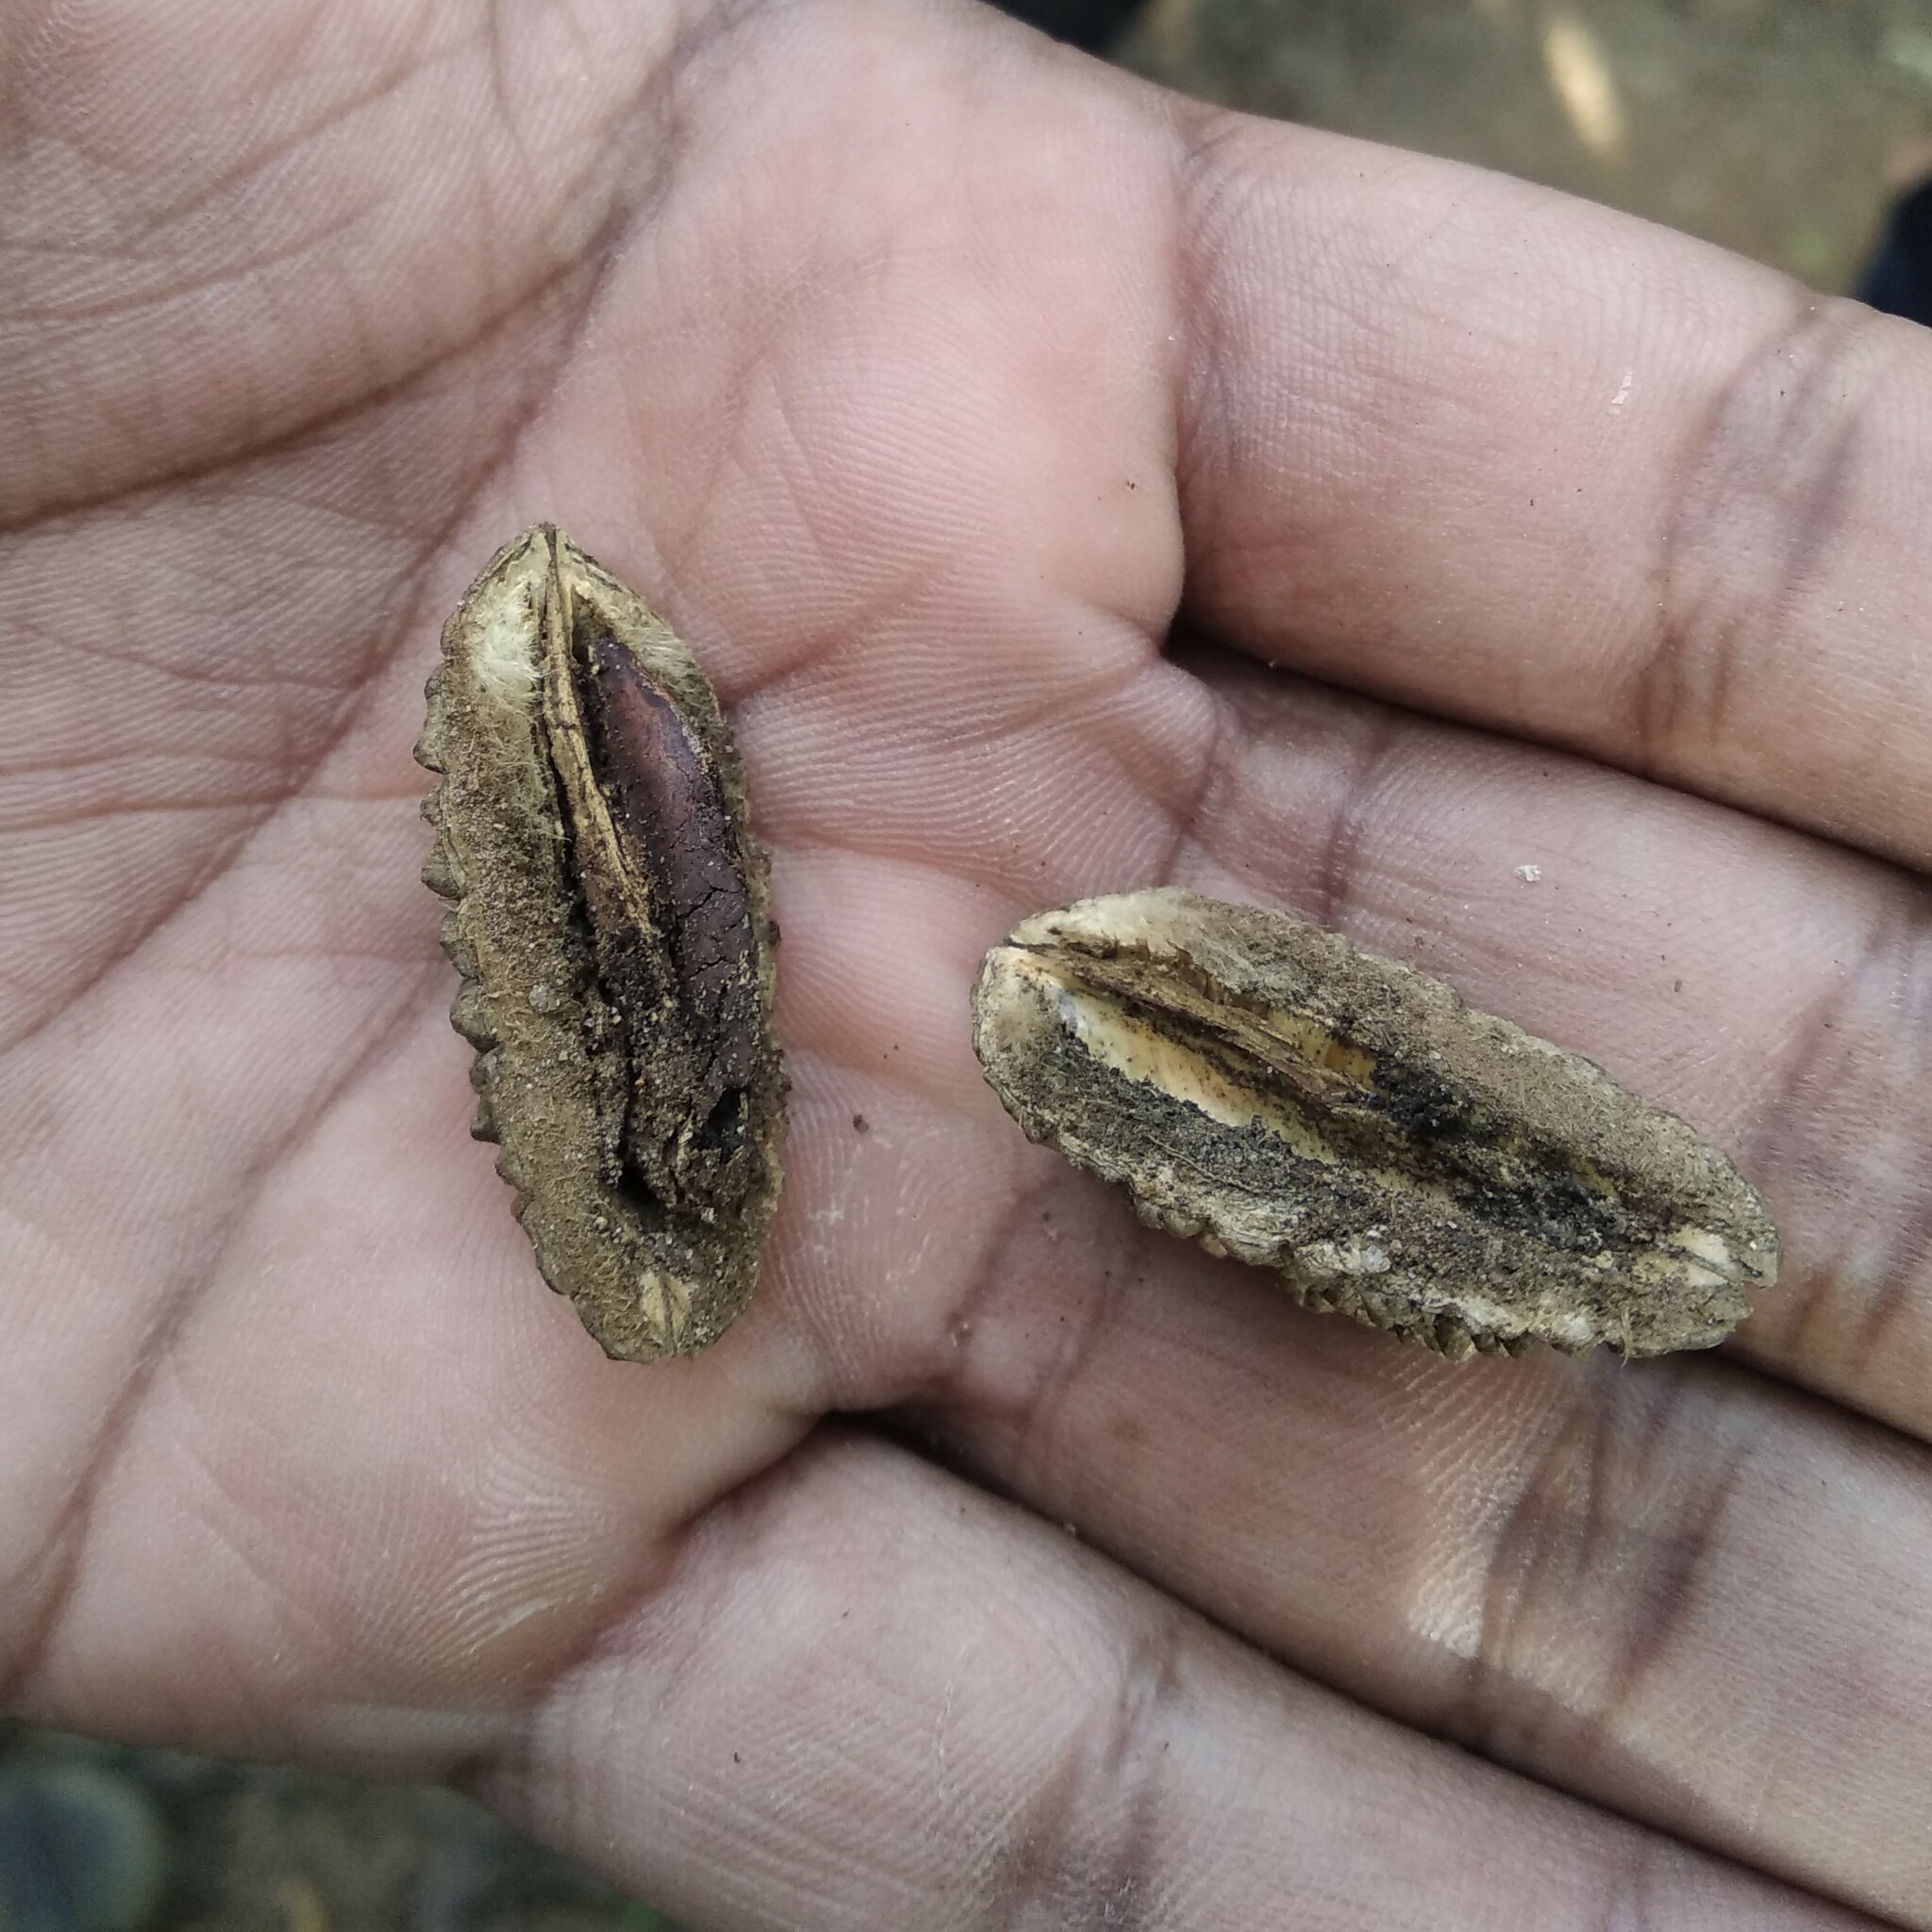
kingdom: Plantae
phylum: Tracheophyta
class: Magnoliopsida
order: Oxalidales
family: Elaeocarpaceae
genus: Elaeocarpus
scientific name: Elaeocarpus tuberculatus
